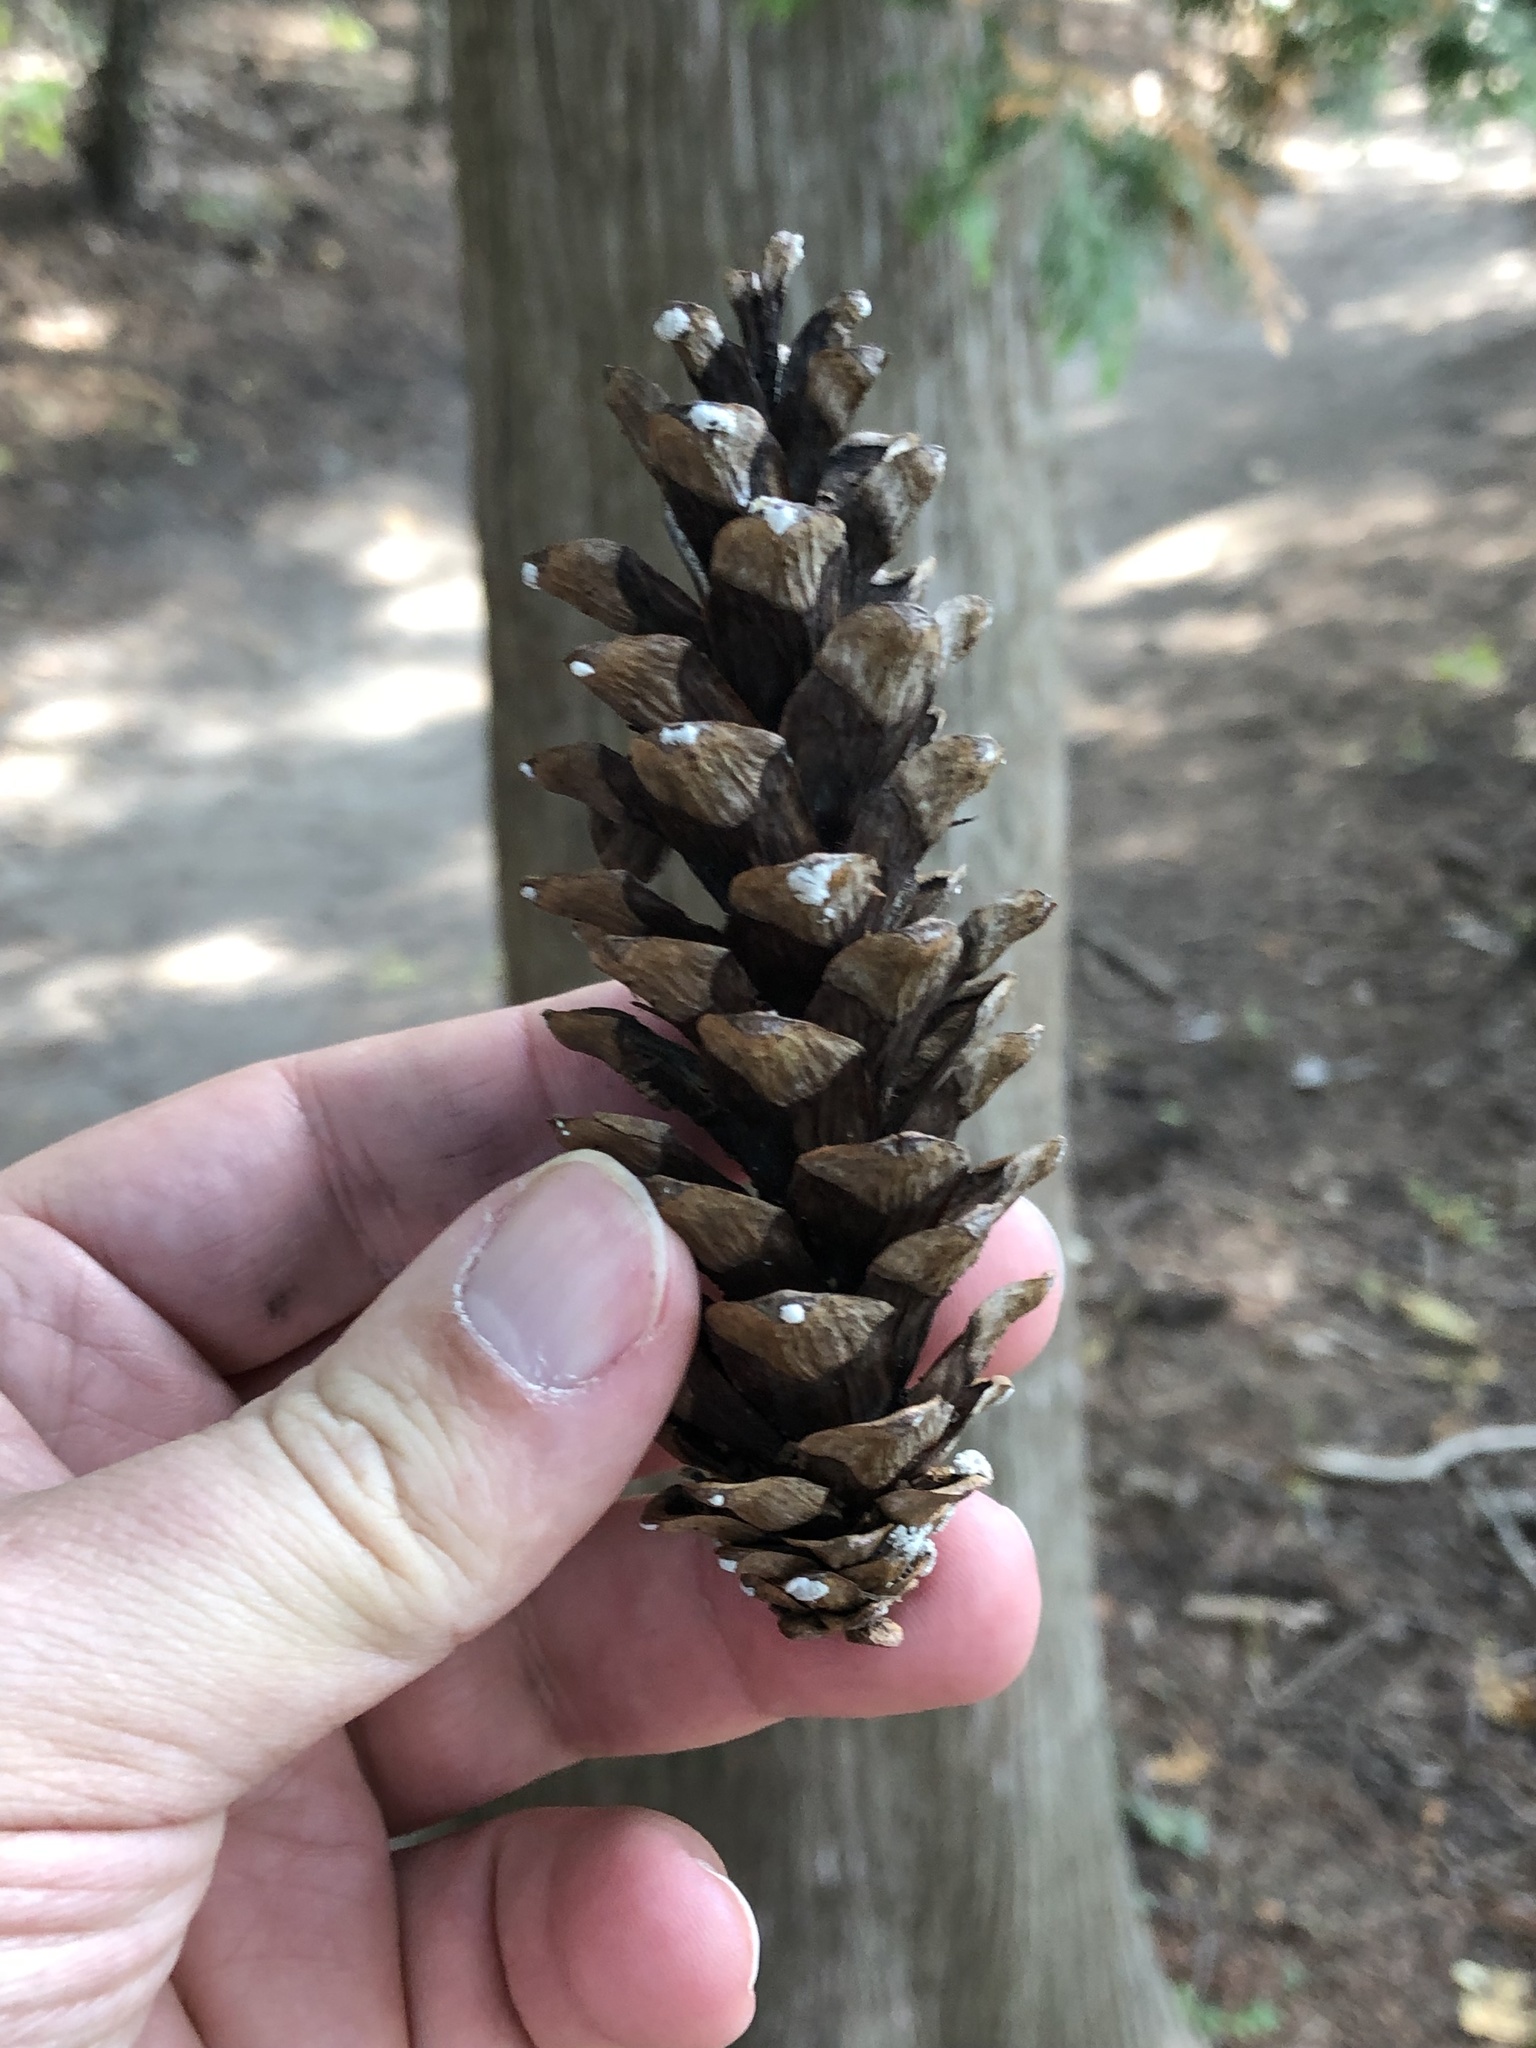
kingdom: Plantae
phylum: Tracheophyta
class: Pinopsida
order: Pinales
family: Pinaceae
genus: Pinus
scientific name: Pinus strobus
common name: Weymouth pine
